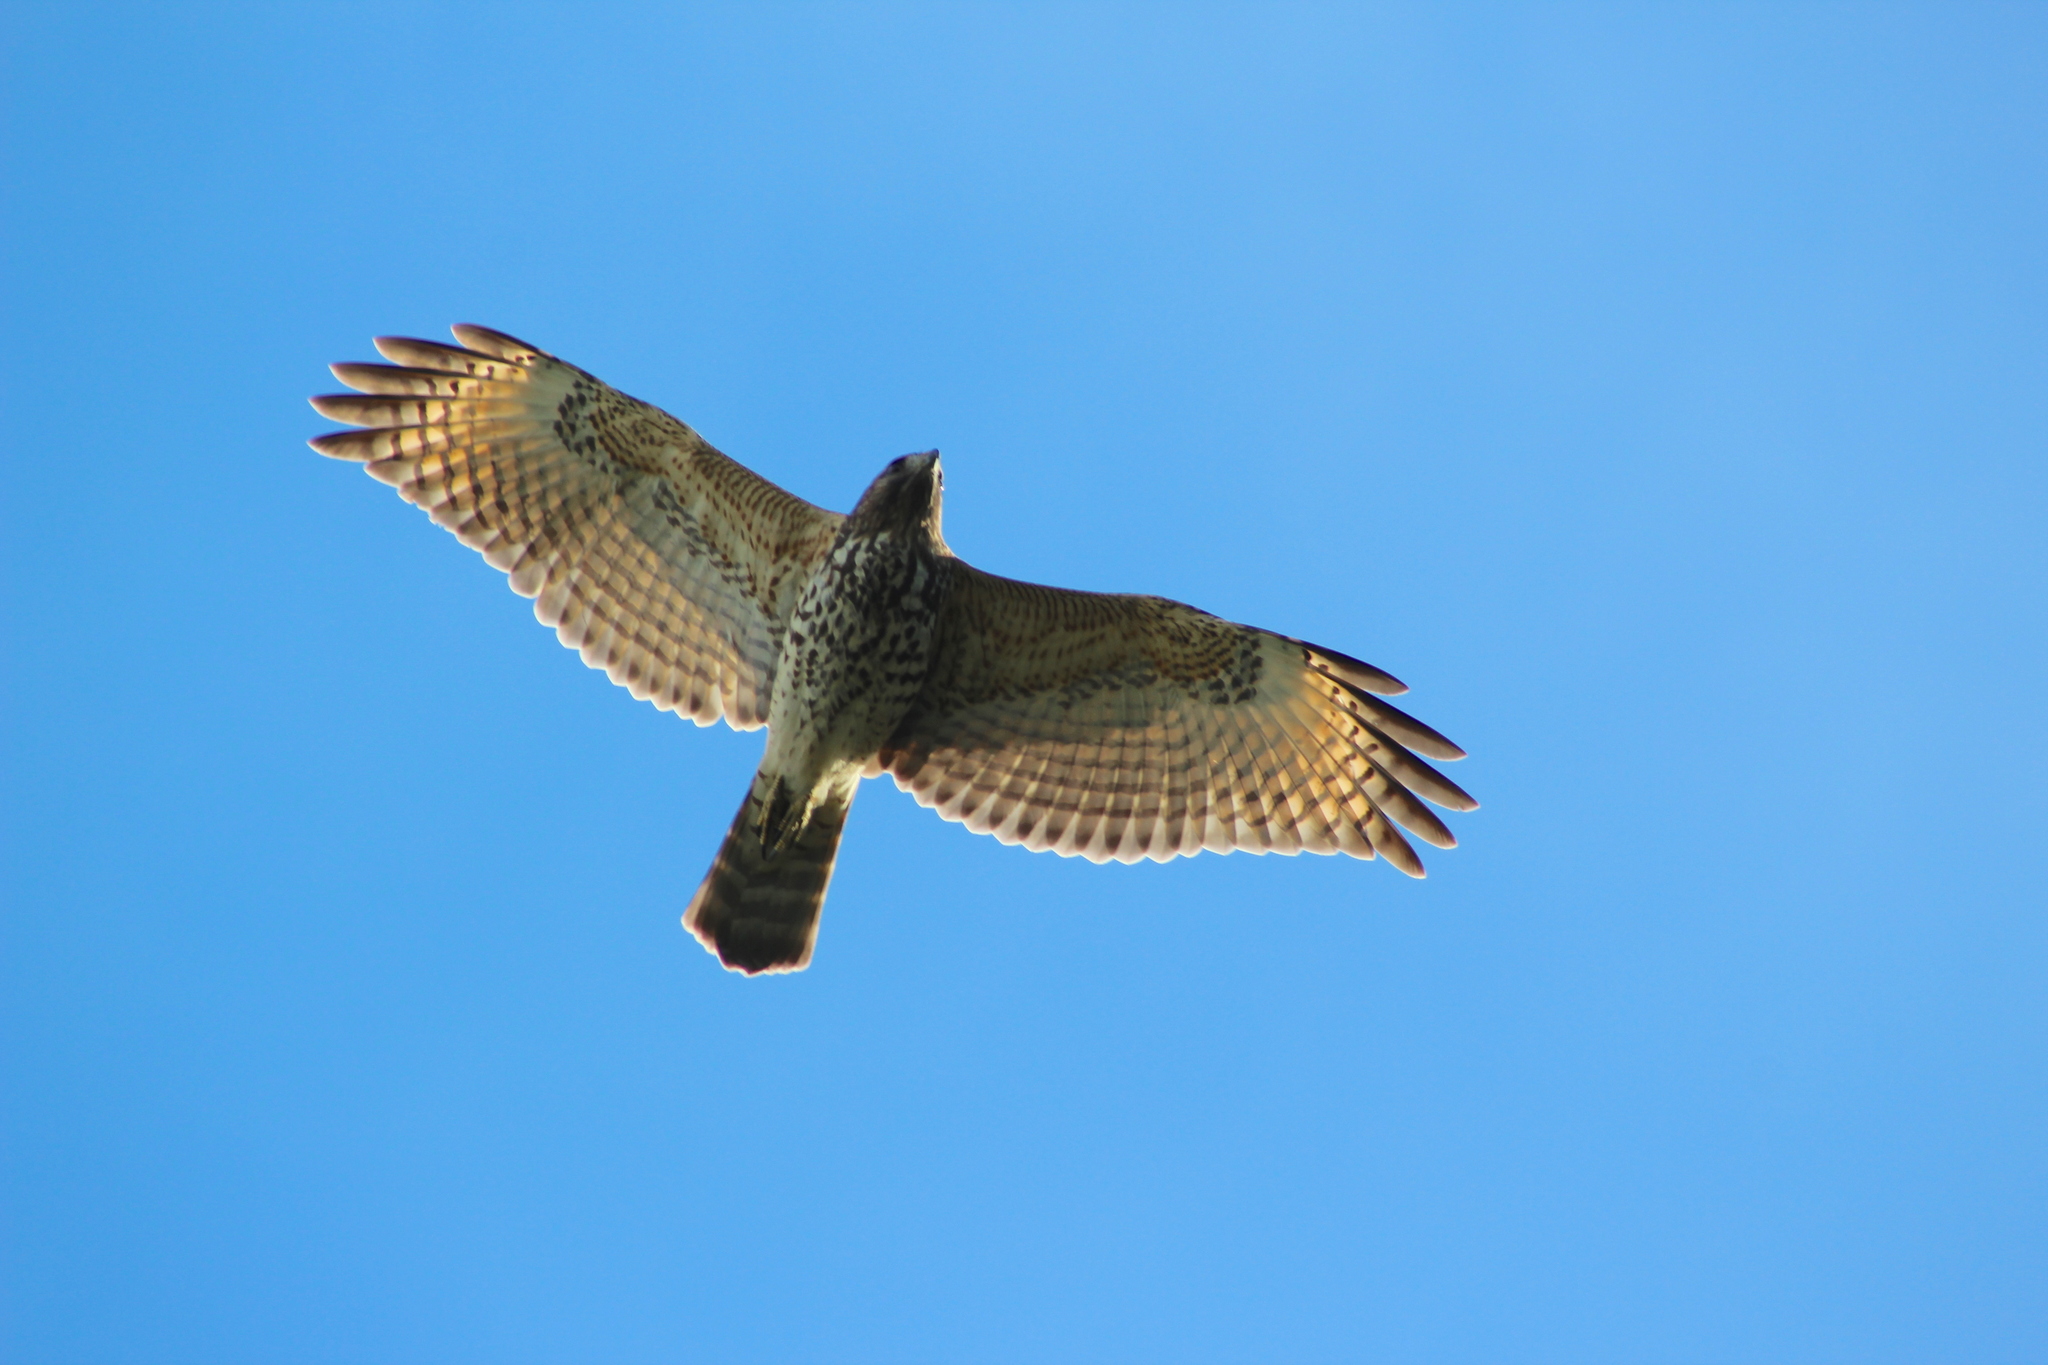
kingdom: Animalia
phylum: Chordata
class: Aves
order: Accipitriformes
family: Accipitridae
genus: Buteo
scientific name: Buteo lineatus
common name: Red-shouldered hawk
